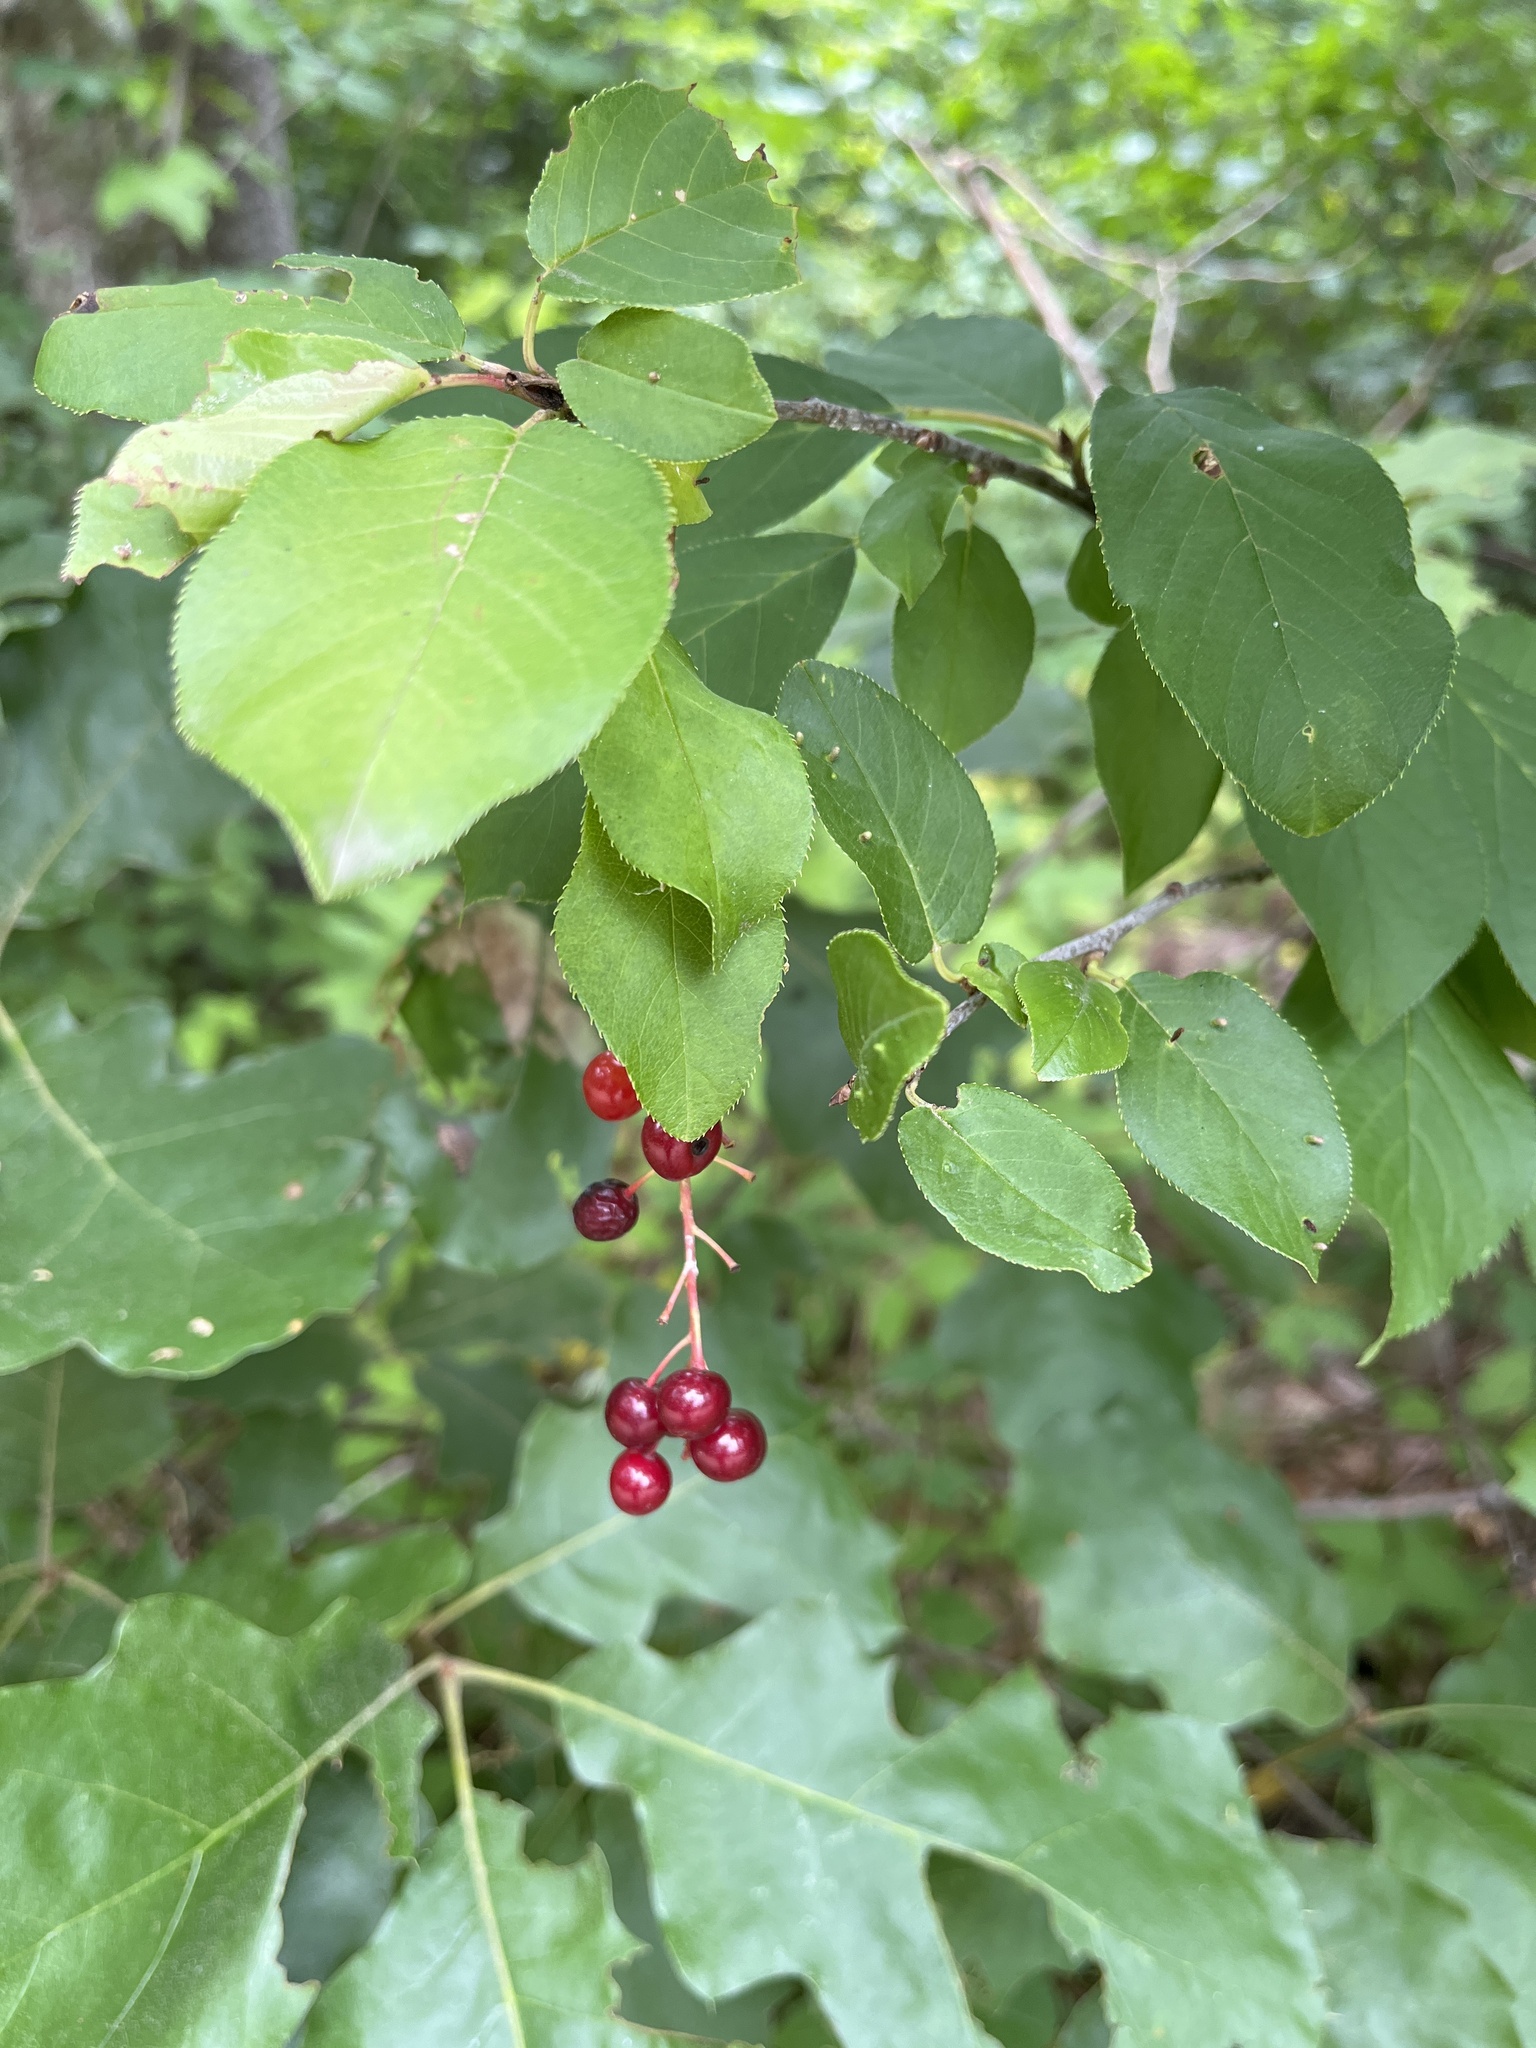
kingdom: Plantae
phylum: Tracheophyta
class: Magnoliopsida
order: Rosales
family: Rosaceae
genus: Prunus
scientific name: Prunus virginiana
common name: Chokecherry
